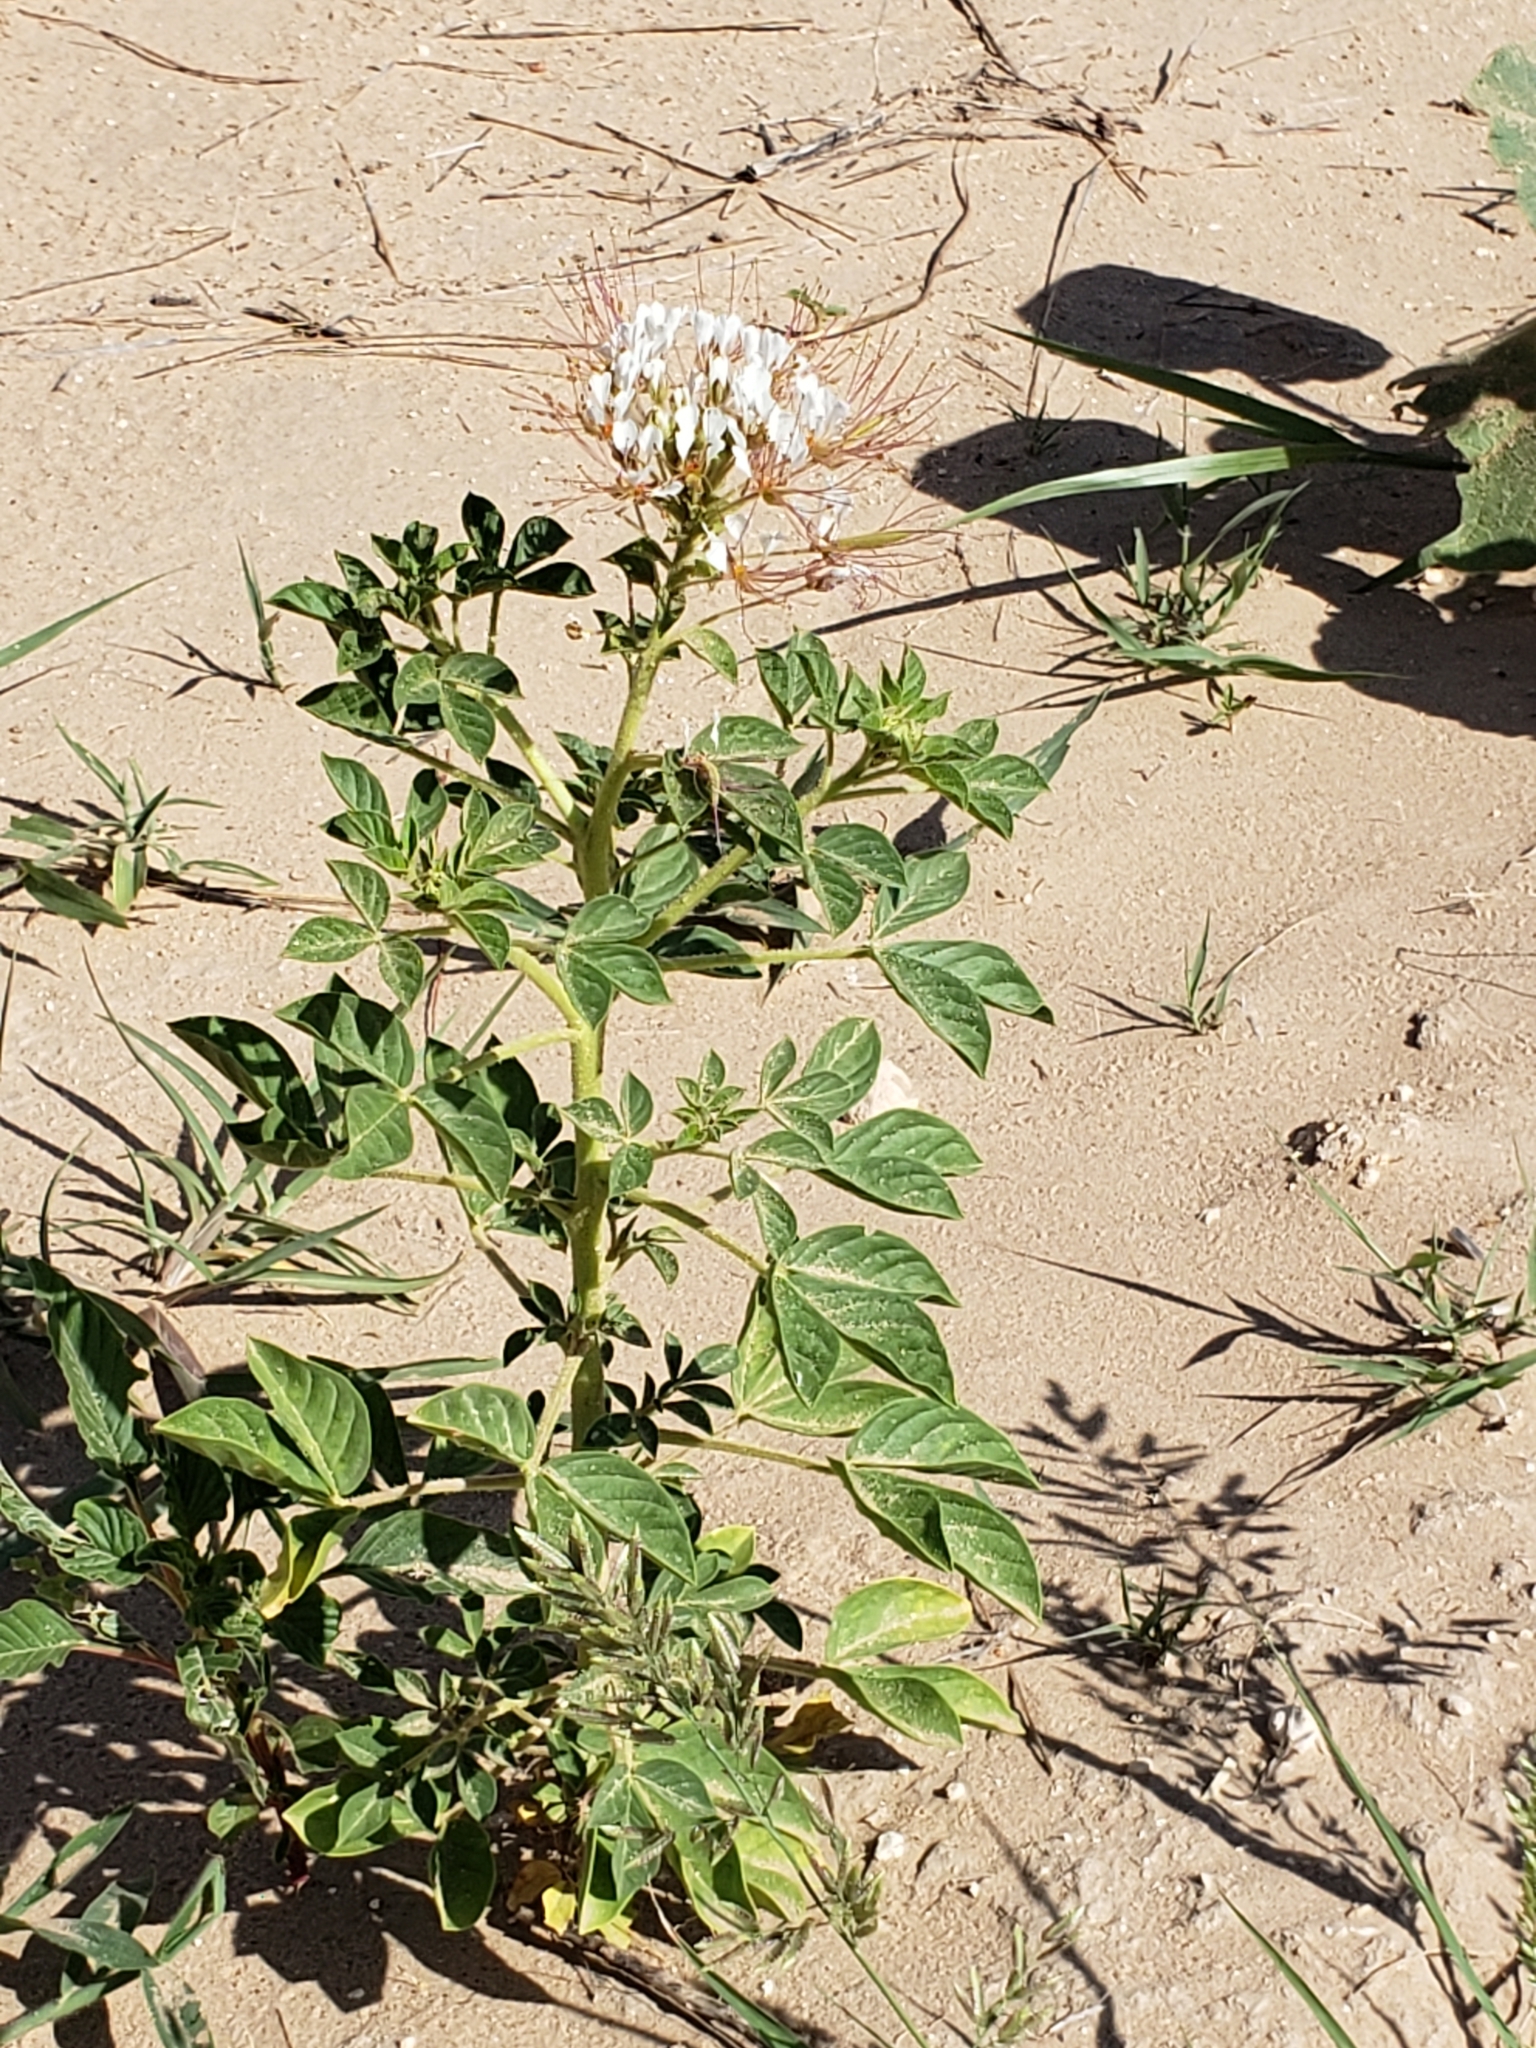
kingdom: Plantae
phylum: Tracheophyta
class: Magnoliopsida
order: Brassicales
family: Cleomaceae
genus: Polanisia
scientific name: Polanisia dodecandra
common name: Clammyweed
